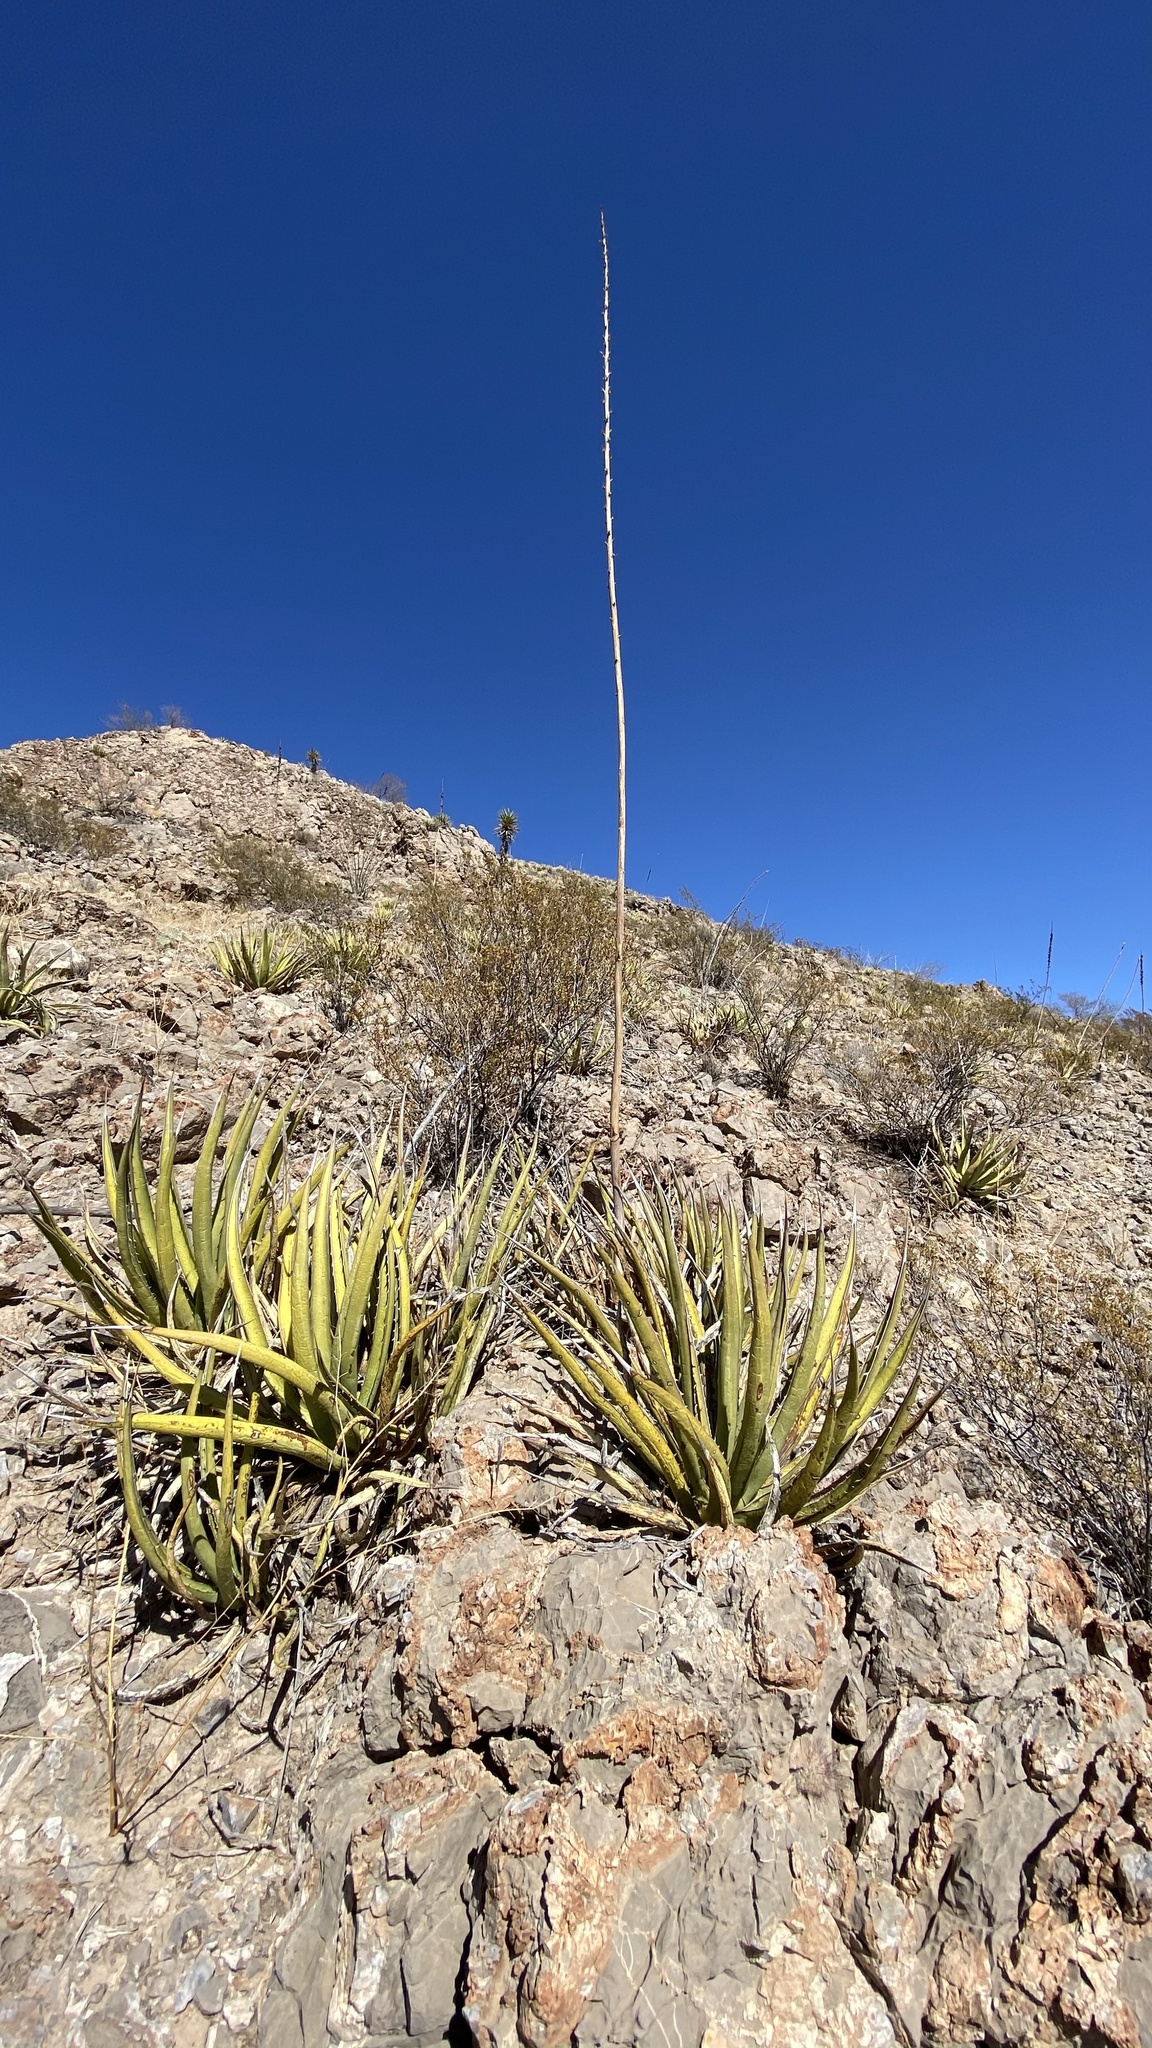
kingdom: Plantae
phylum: Tracheophyta
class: Liliopsida
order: Asparagales
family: Asparagaceae
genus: Agave
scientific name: Agave lechuguilla
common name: Lecheguilla agave
